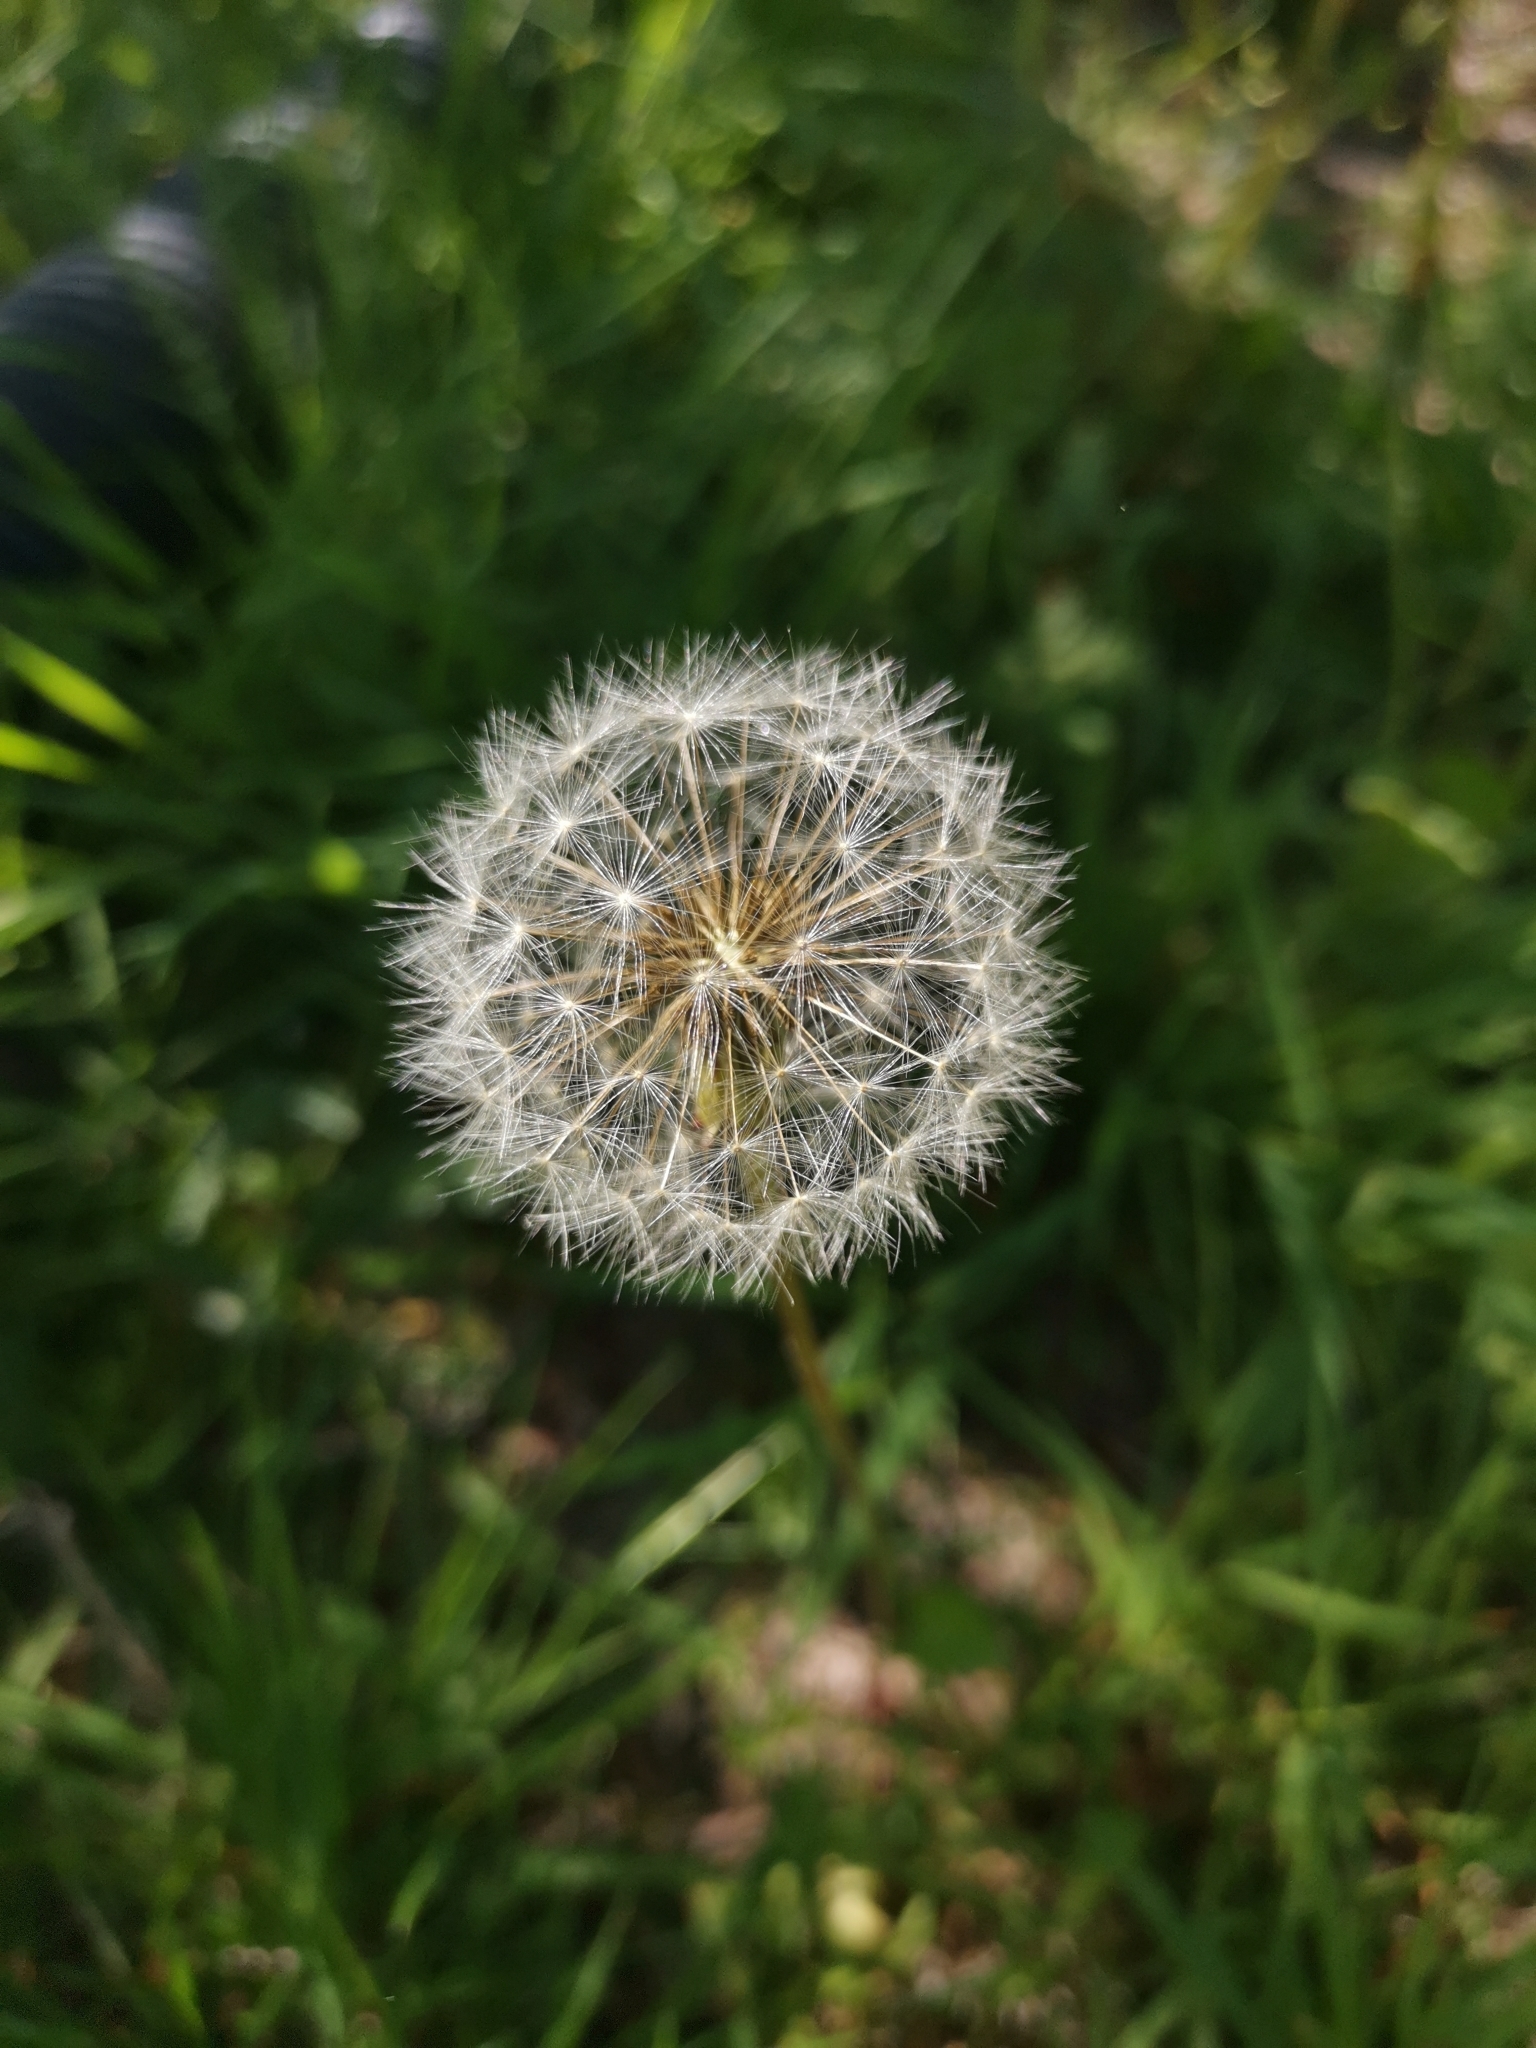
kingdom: Plantae
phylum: Tracheophyta
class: Magnoliopsida
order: Asterales
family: Asteraceae
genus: Taraxacum
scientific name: Taraxacum officinale
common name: Common dandelion
